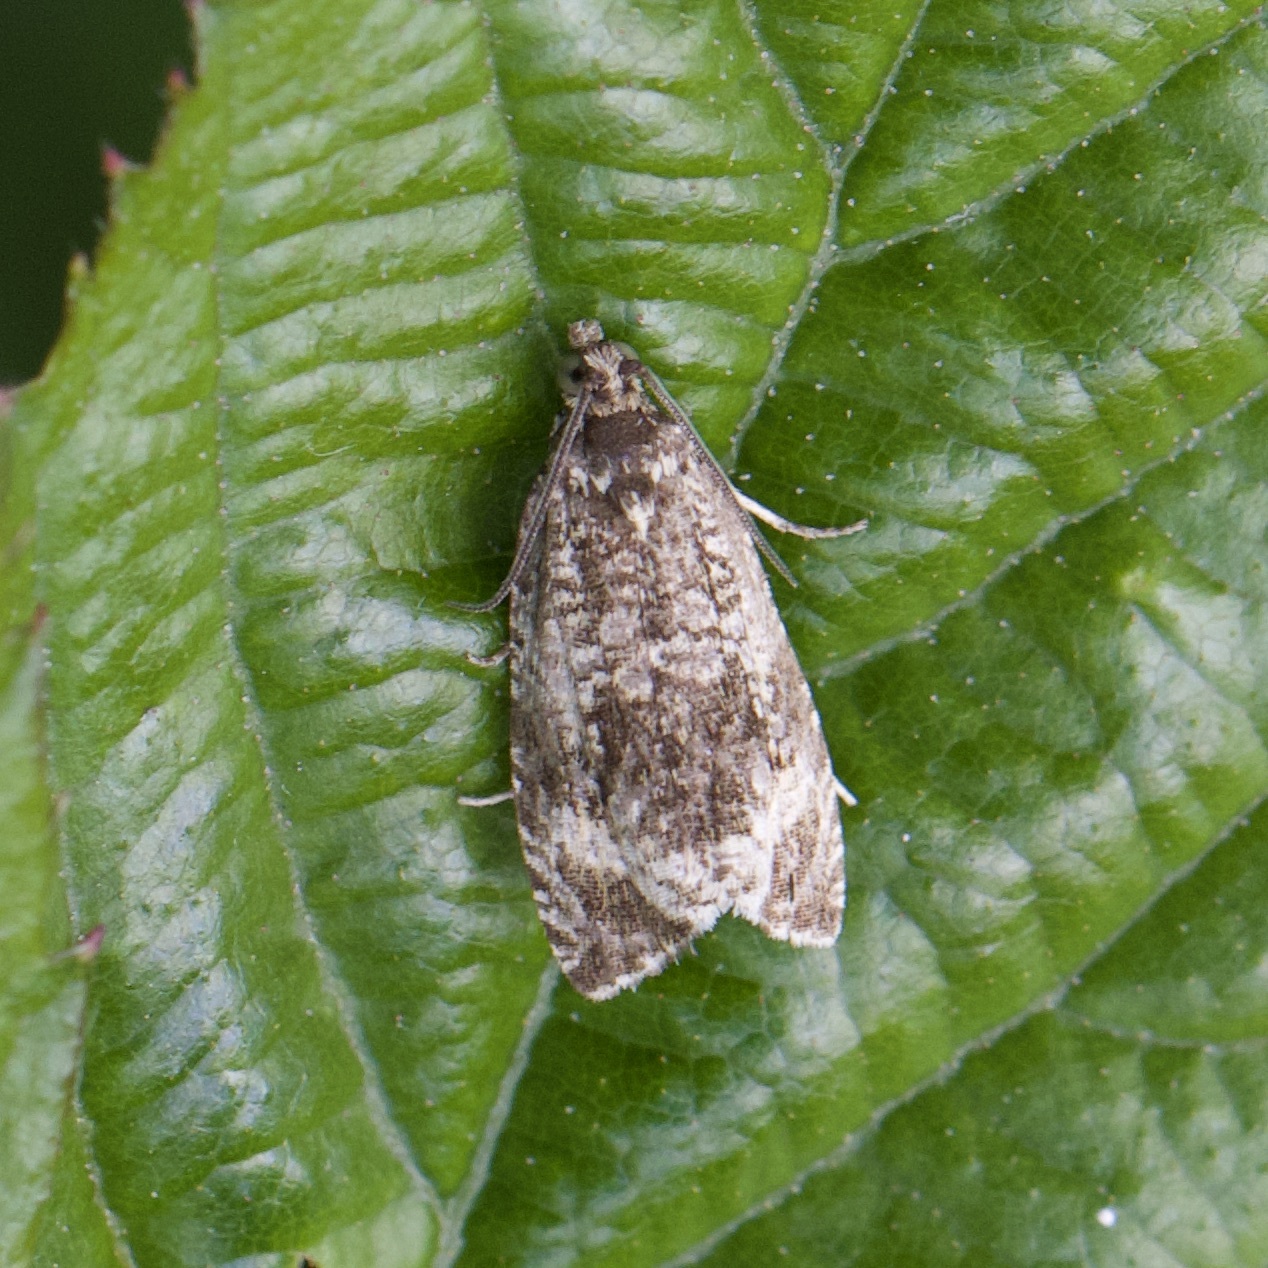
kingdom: Animalia
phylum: Arthropoda
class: Insecta
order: Lepidoptera
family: Tortricidae
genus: Syricoris
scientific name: Syricoris lacunana
